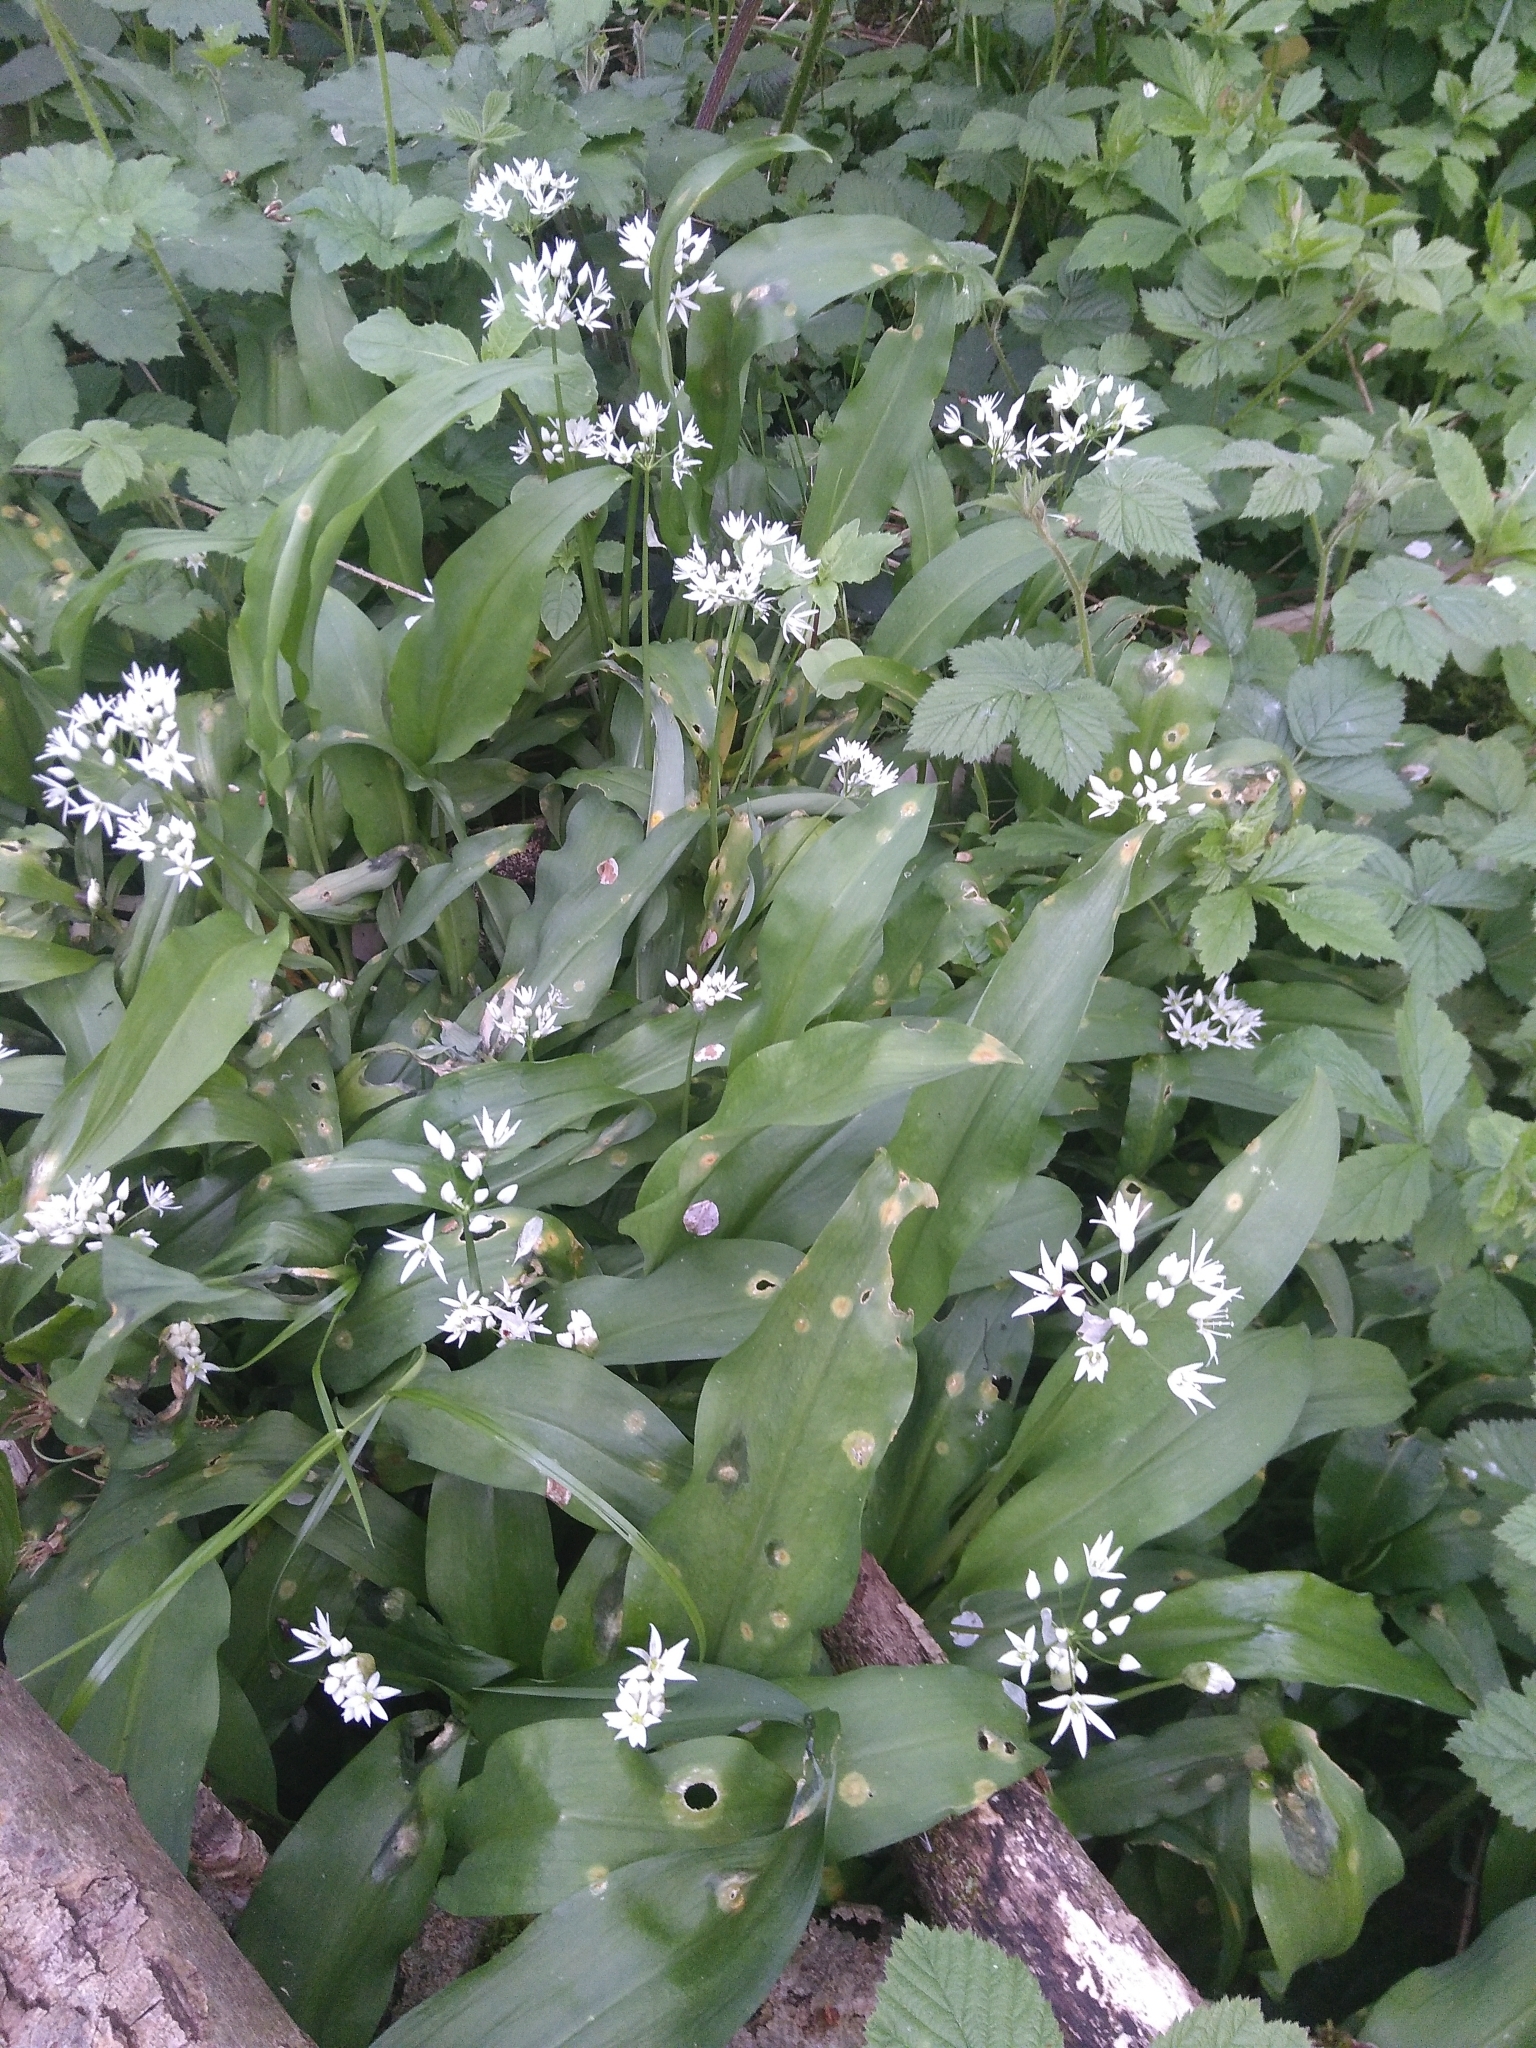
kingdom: Plantae
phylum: Tracheophyta
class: Liliopsida
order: Asparagales
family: Amaryllidaceae
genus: Allium
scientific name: Allium ursinum
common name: Ramsons
